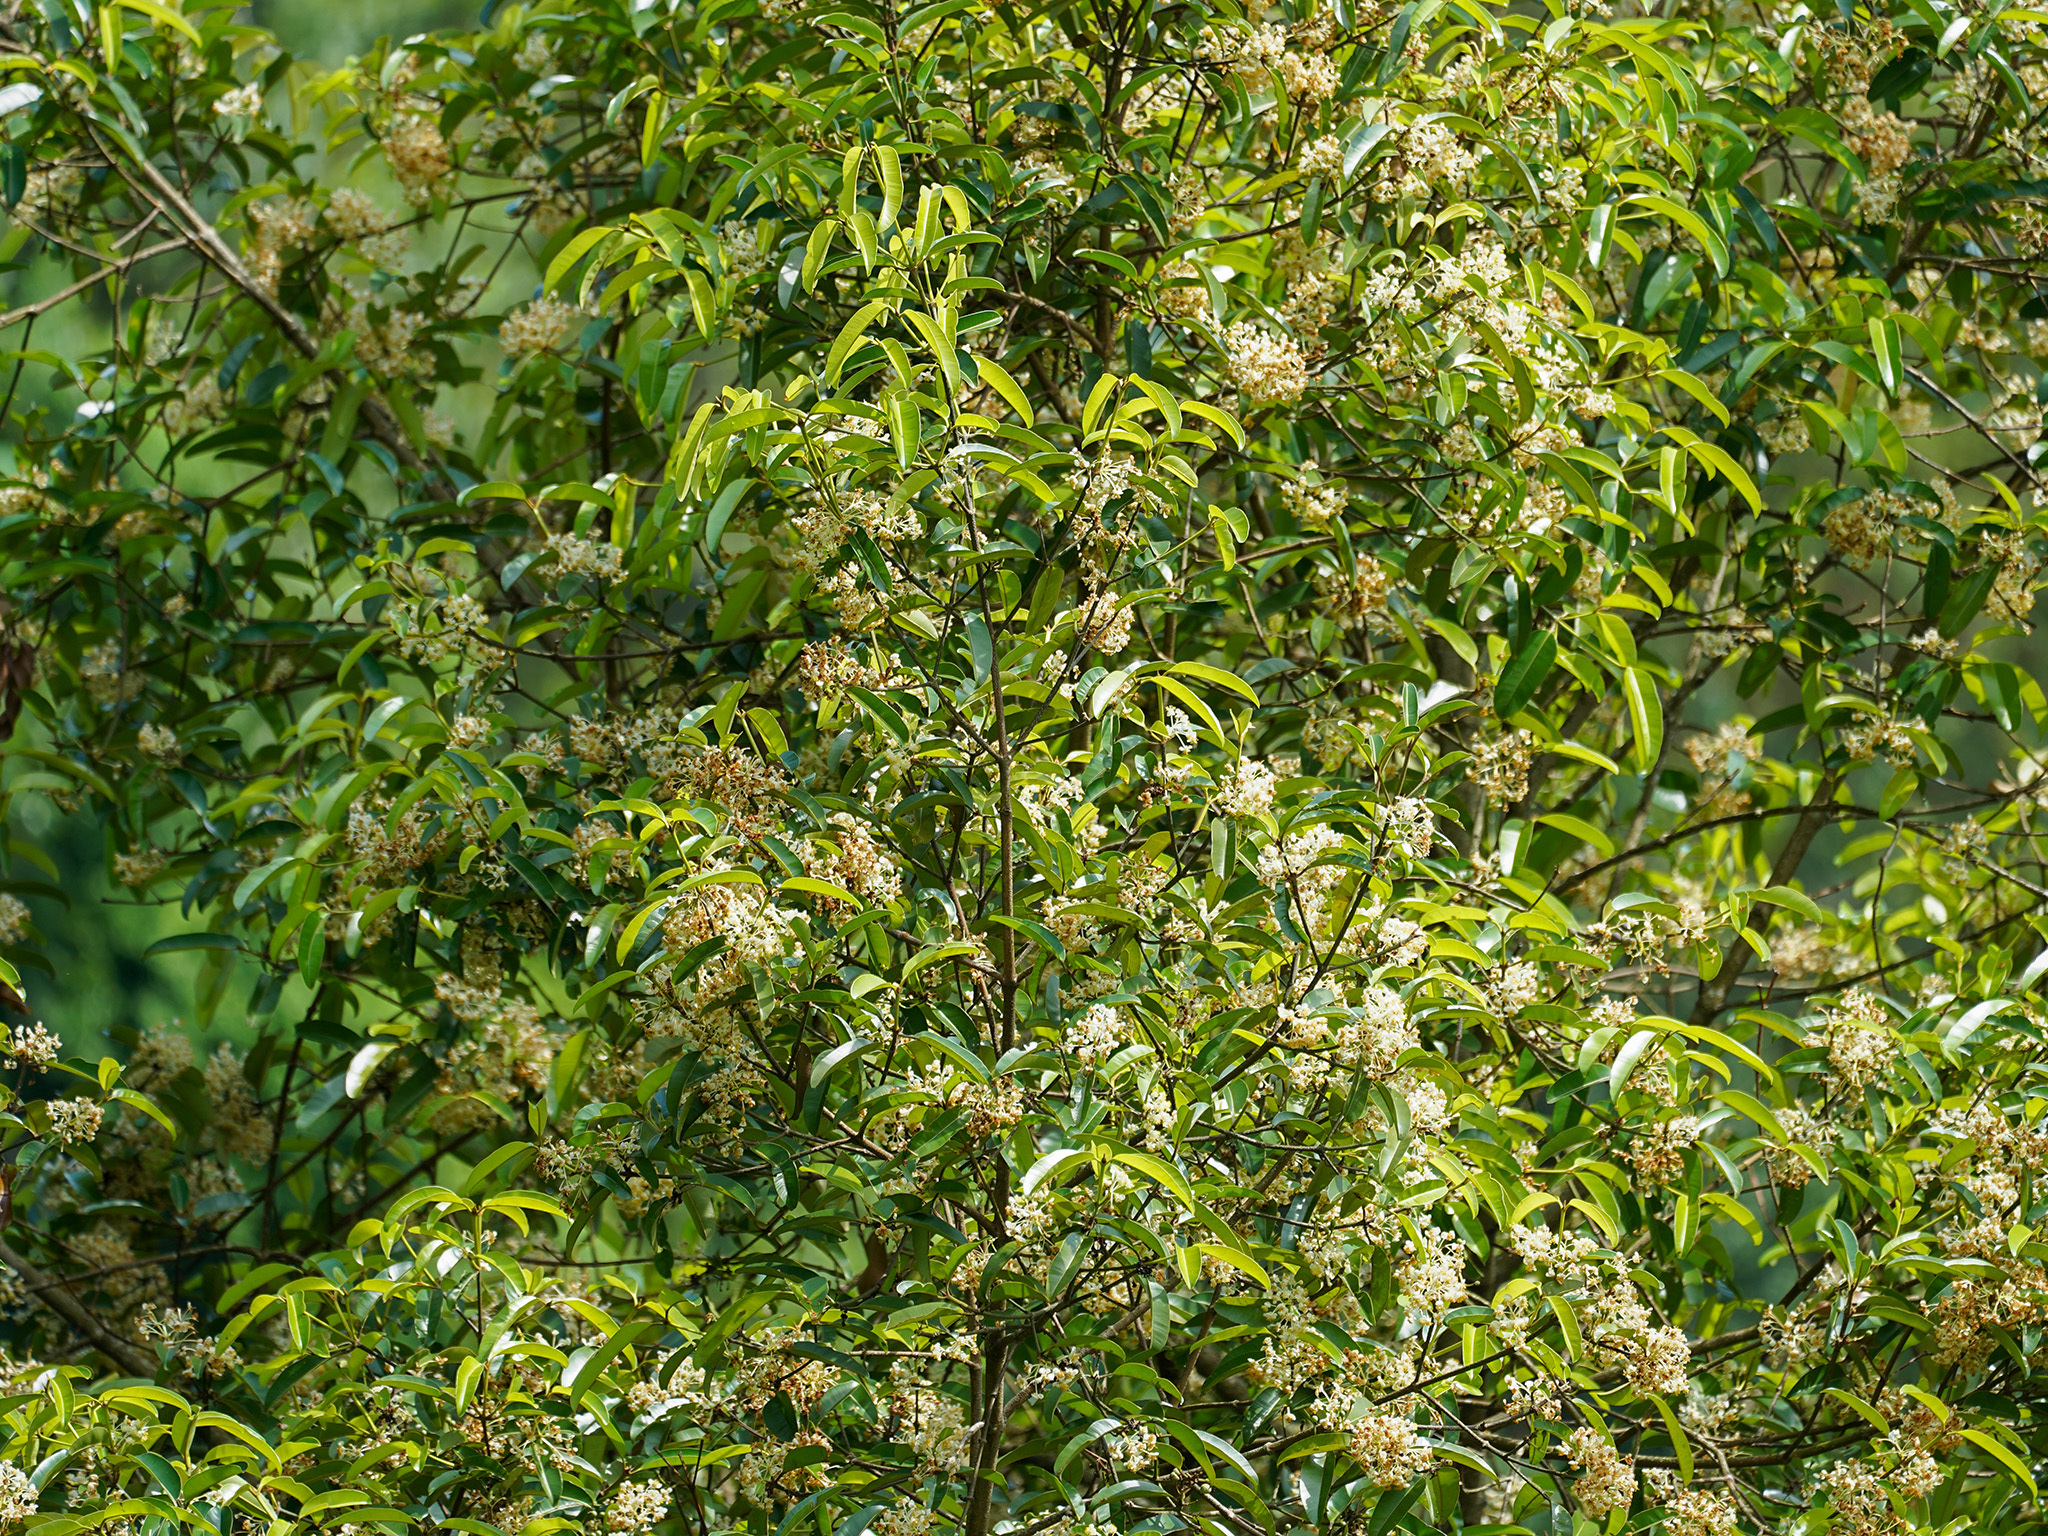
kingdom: Plantae
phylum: Tracheophyta
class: Magnoliopsida
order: Malpighiales
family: Calophyllaceae
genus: Calophyllum
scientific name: Calophyllum soulattri
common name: Bitangoor boonot
